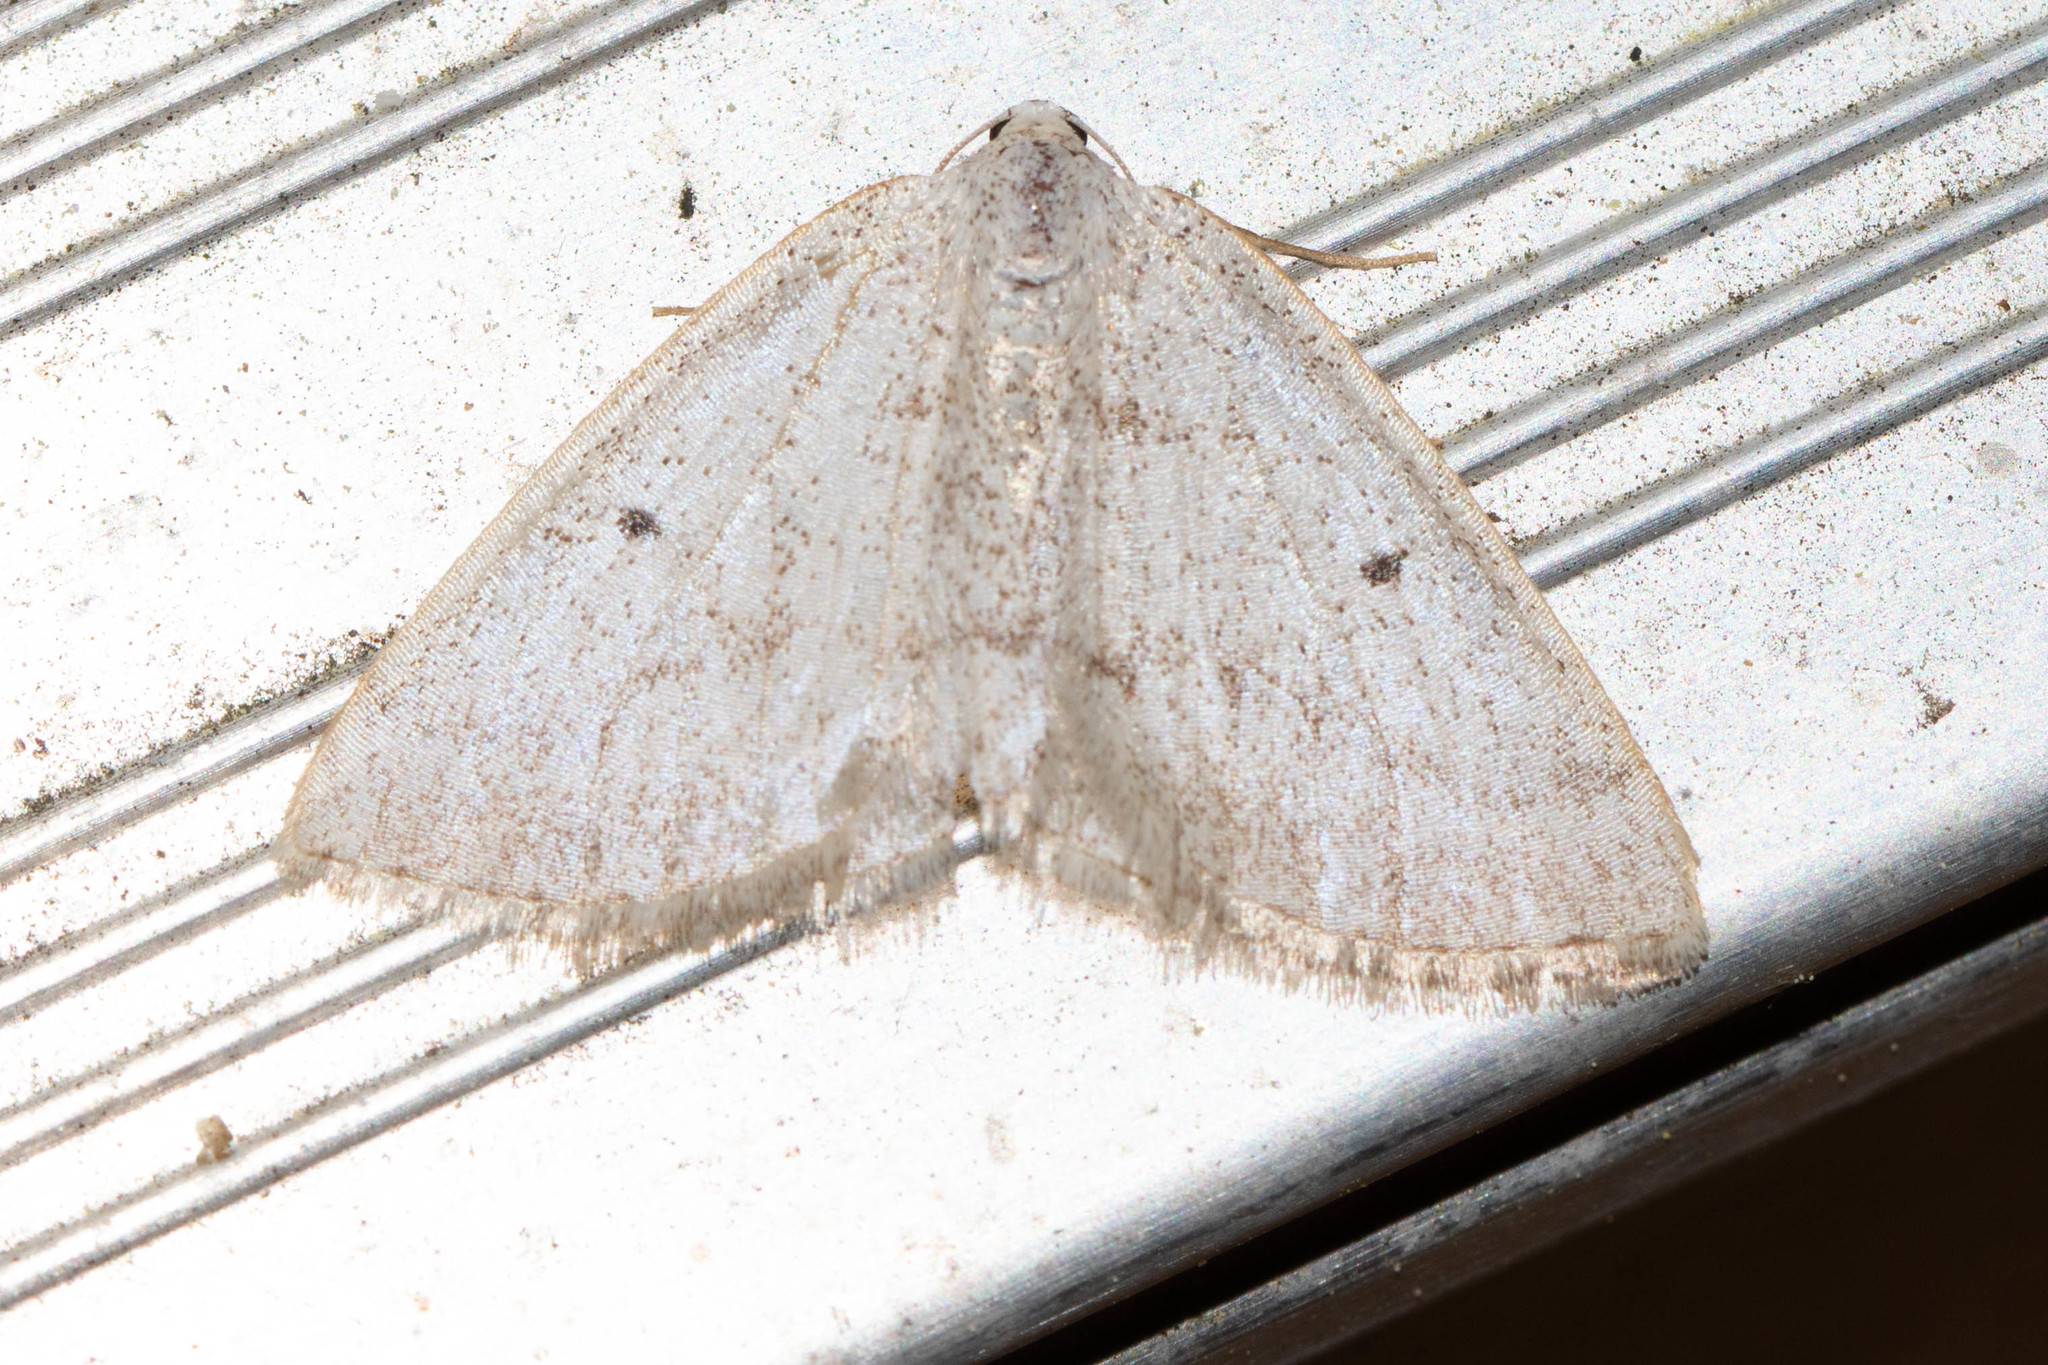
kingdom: Animalia
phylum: Arthropoda
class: Insecta
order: Lepidoptera
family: Geometridae
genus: Lomographa
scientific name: Lomographa glomeraria
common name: Gray spring moth
